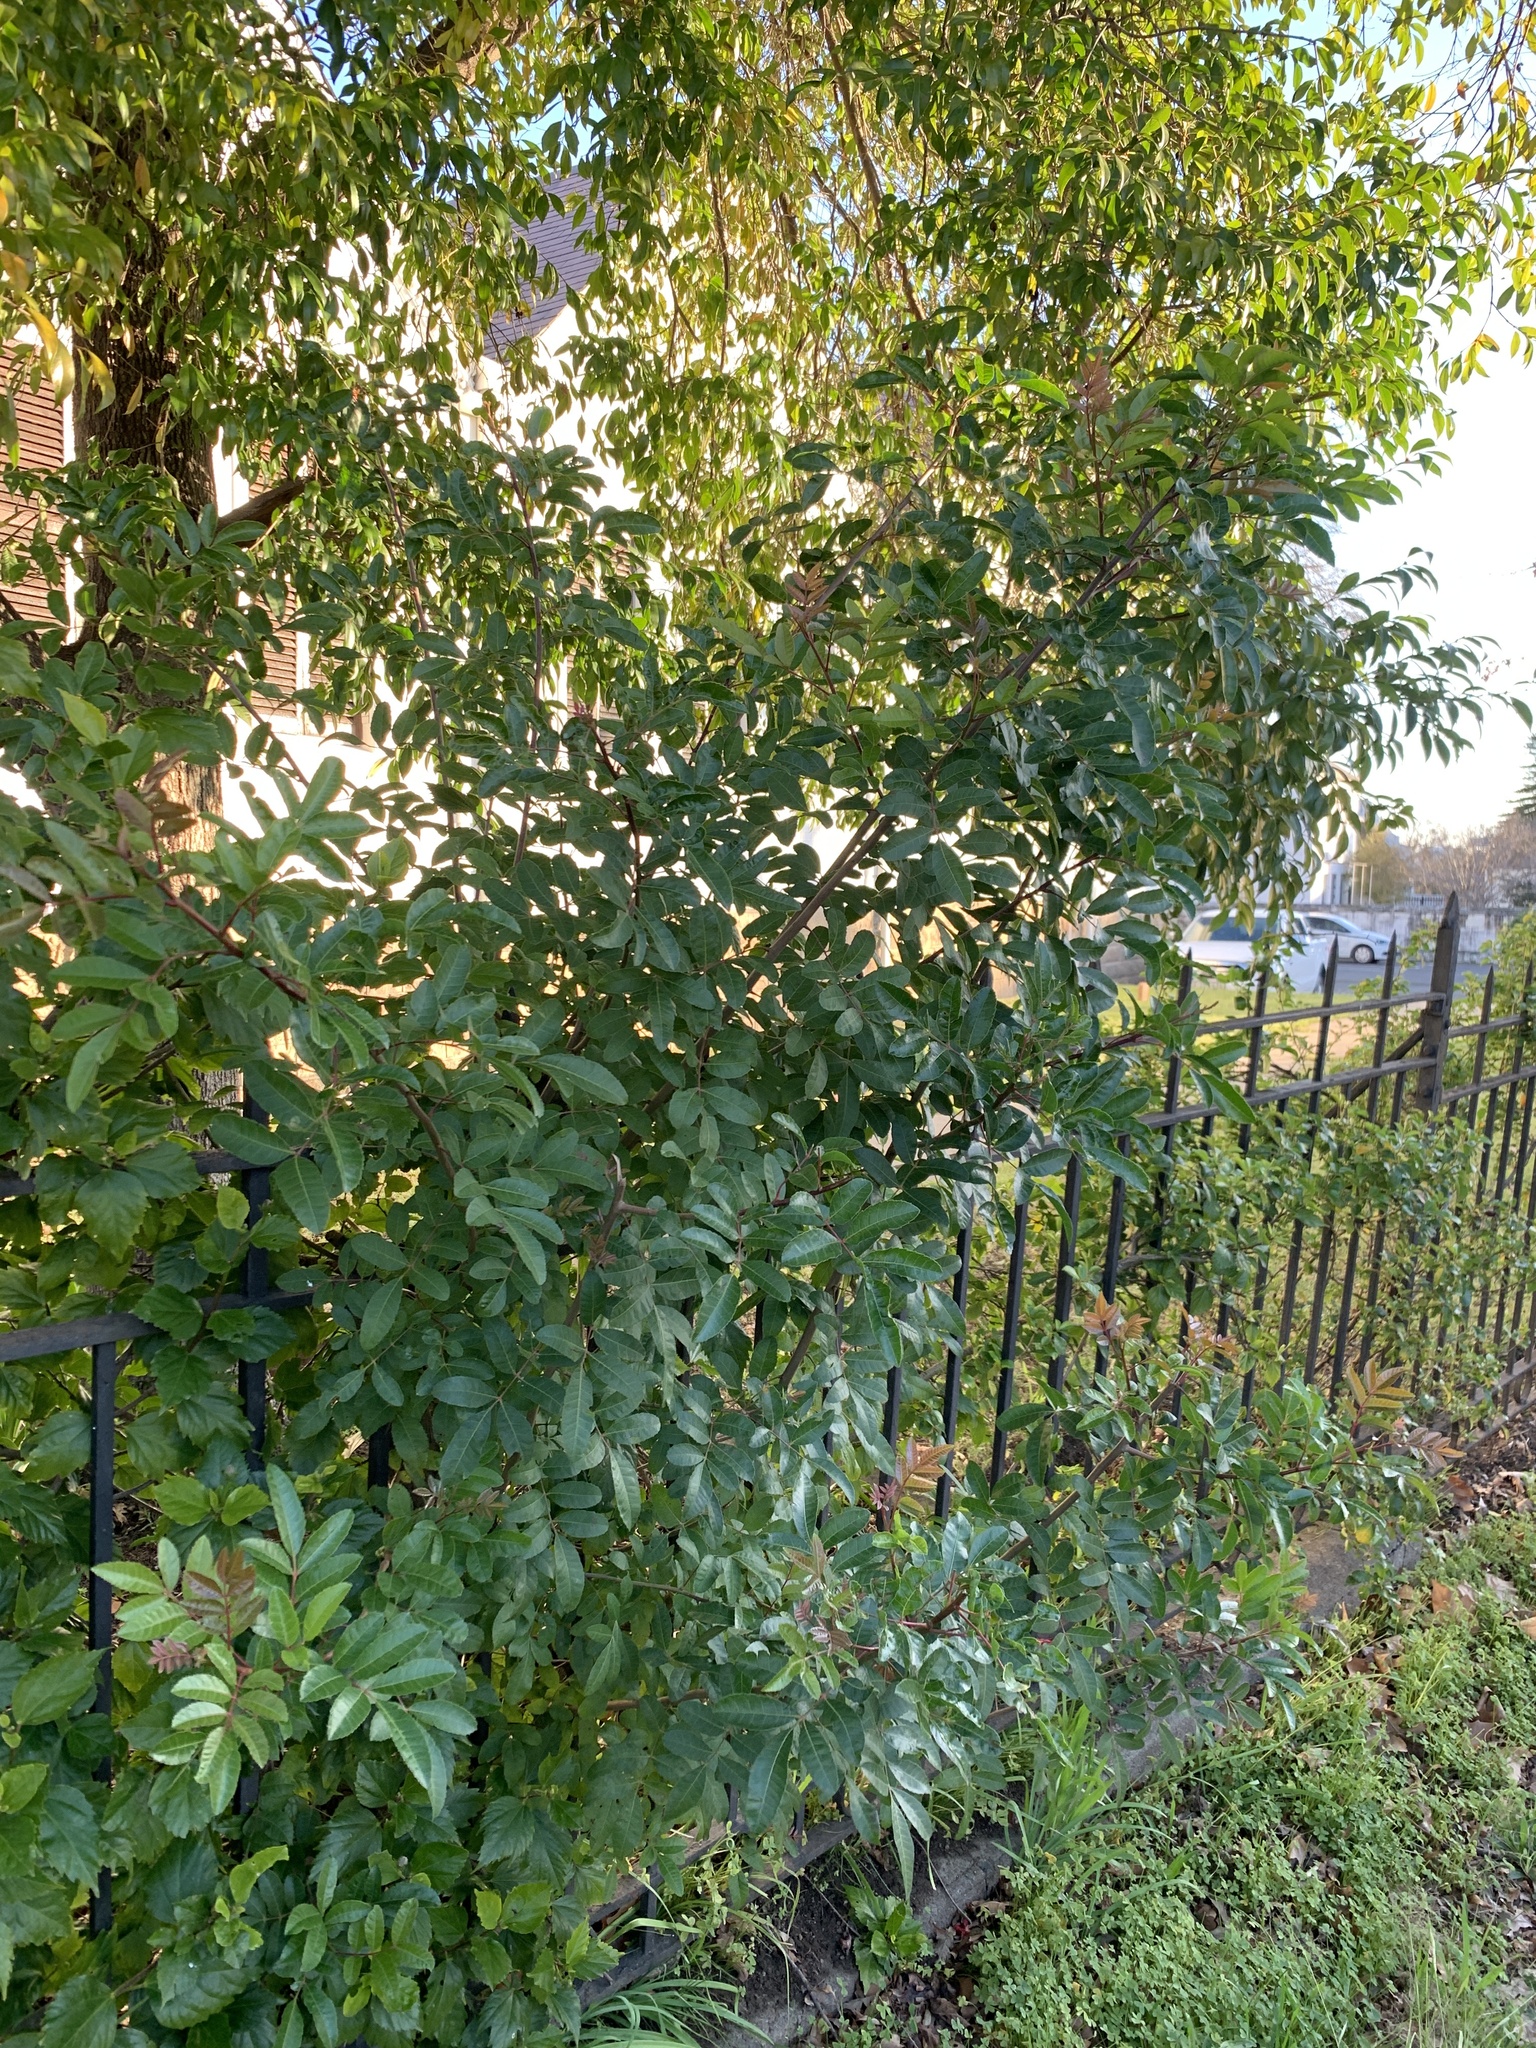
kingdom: Plantae
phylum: Tracheophyta
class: Magnoliopsida
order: Sapindales
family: Anacardiaceae
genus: Schinus
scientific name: Schinus terebinthifolia
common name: Brazilian peppertree
